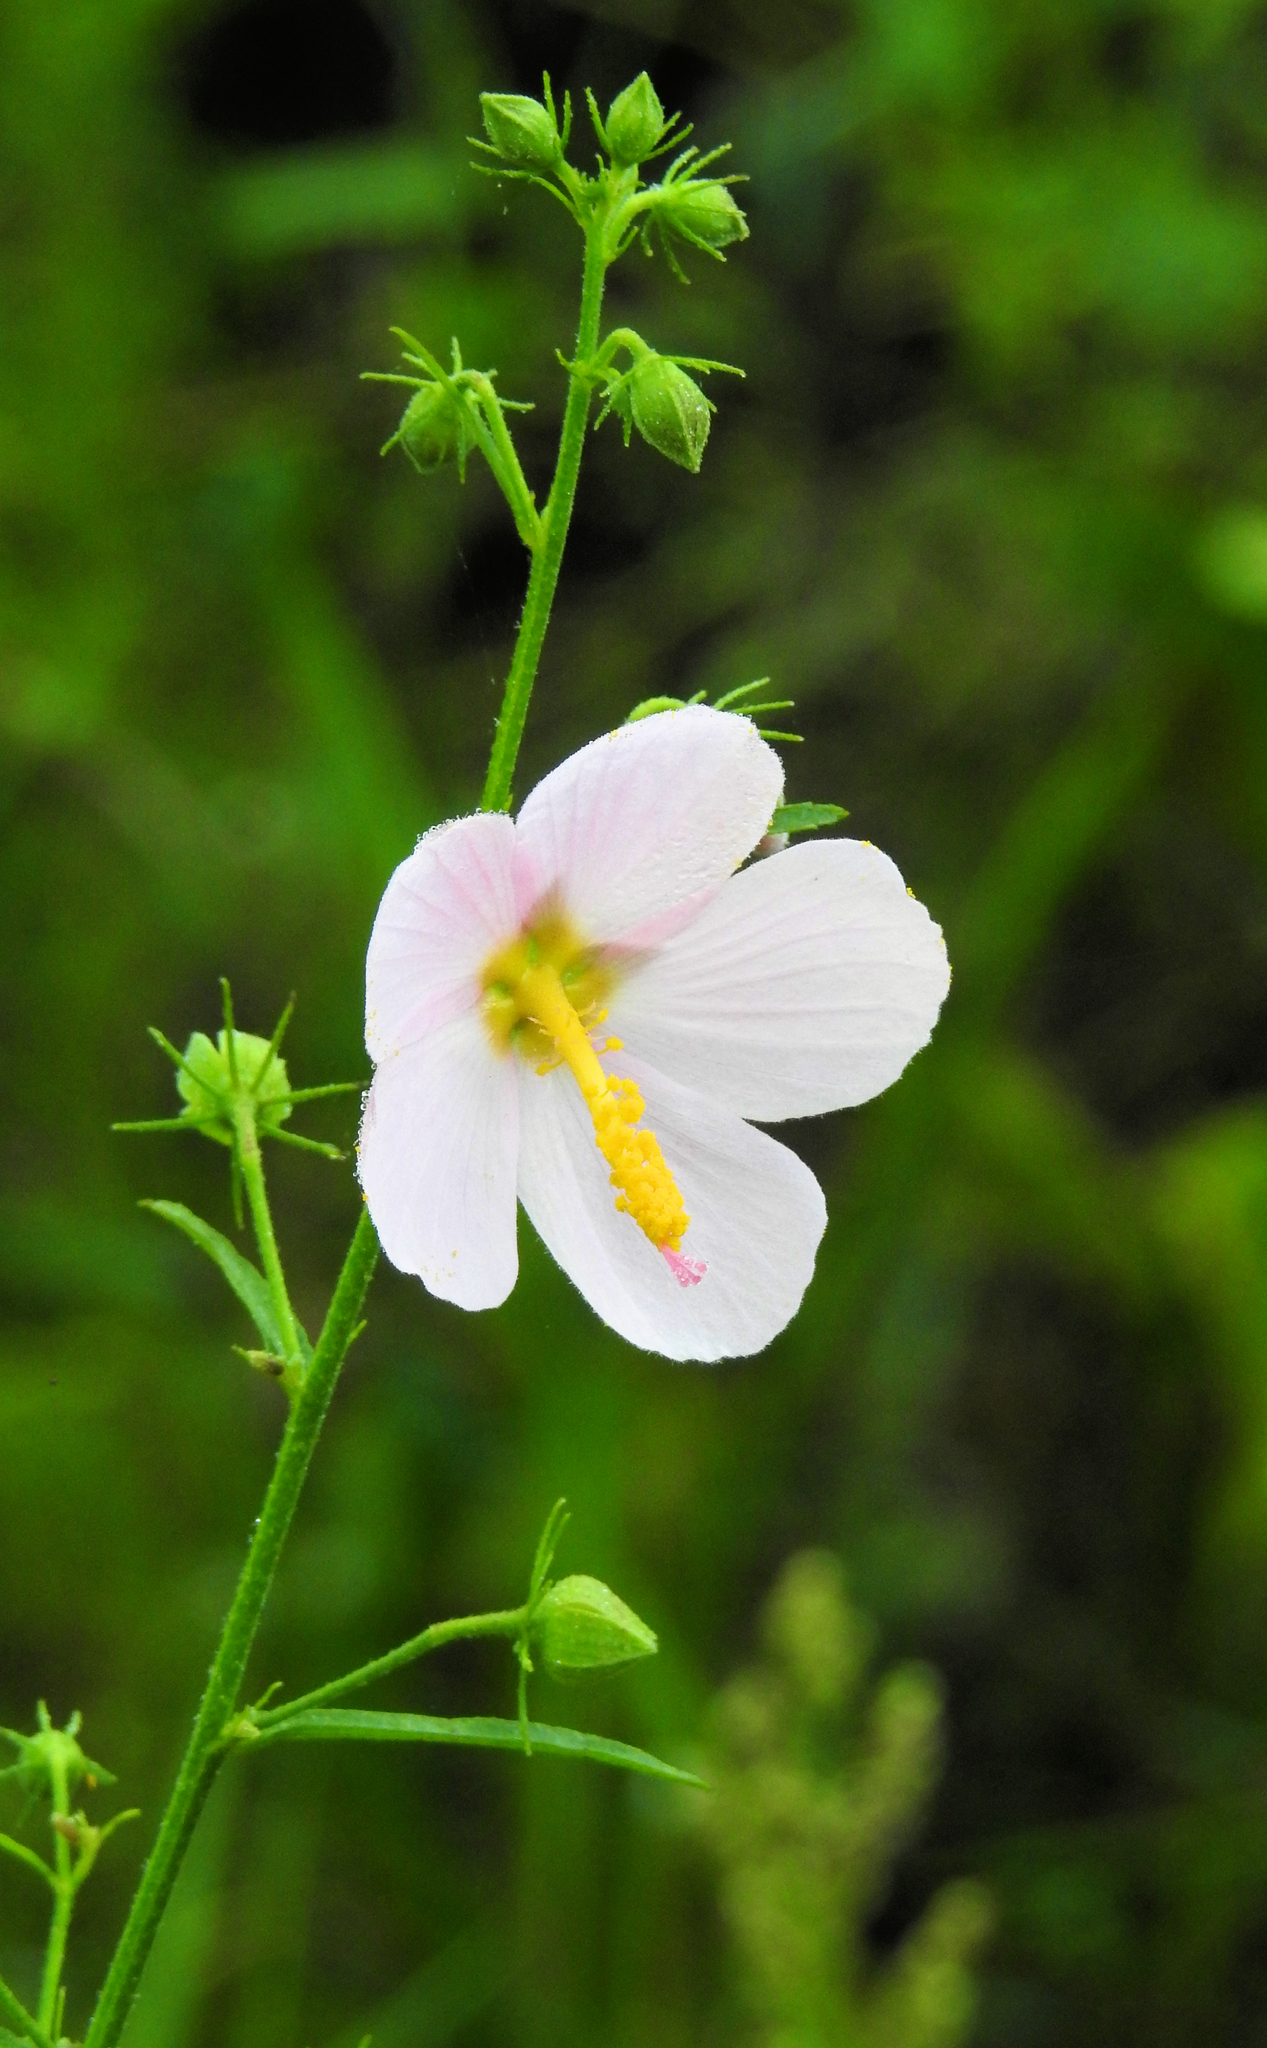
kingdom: Plantae
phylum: Tracheophyta
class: Magnoliopsida
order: Malvales
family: Malvaceae
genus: Kosteletzkya
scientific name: Kosteletzkya pentacarpos
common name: Virginia saltmarsh mallow
